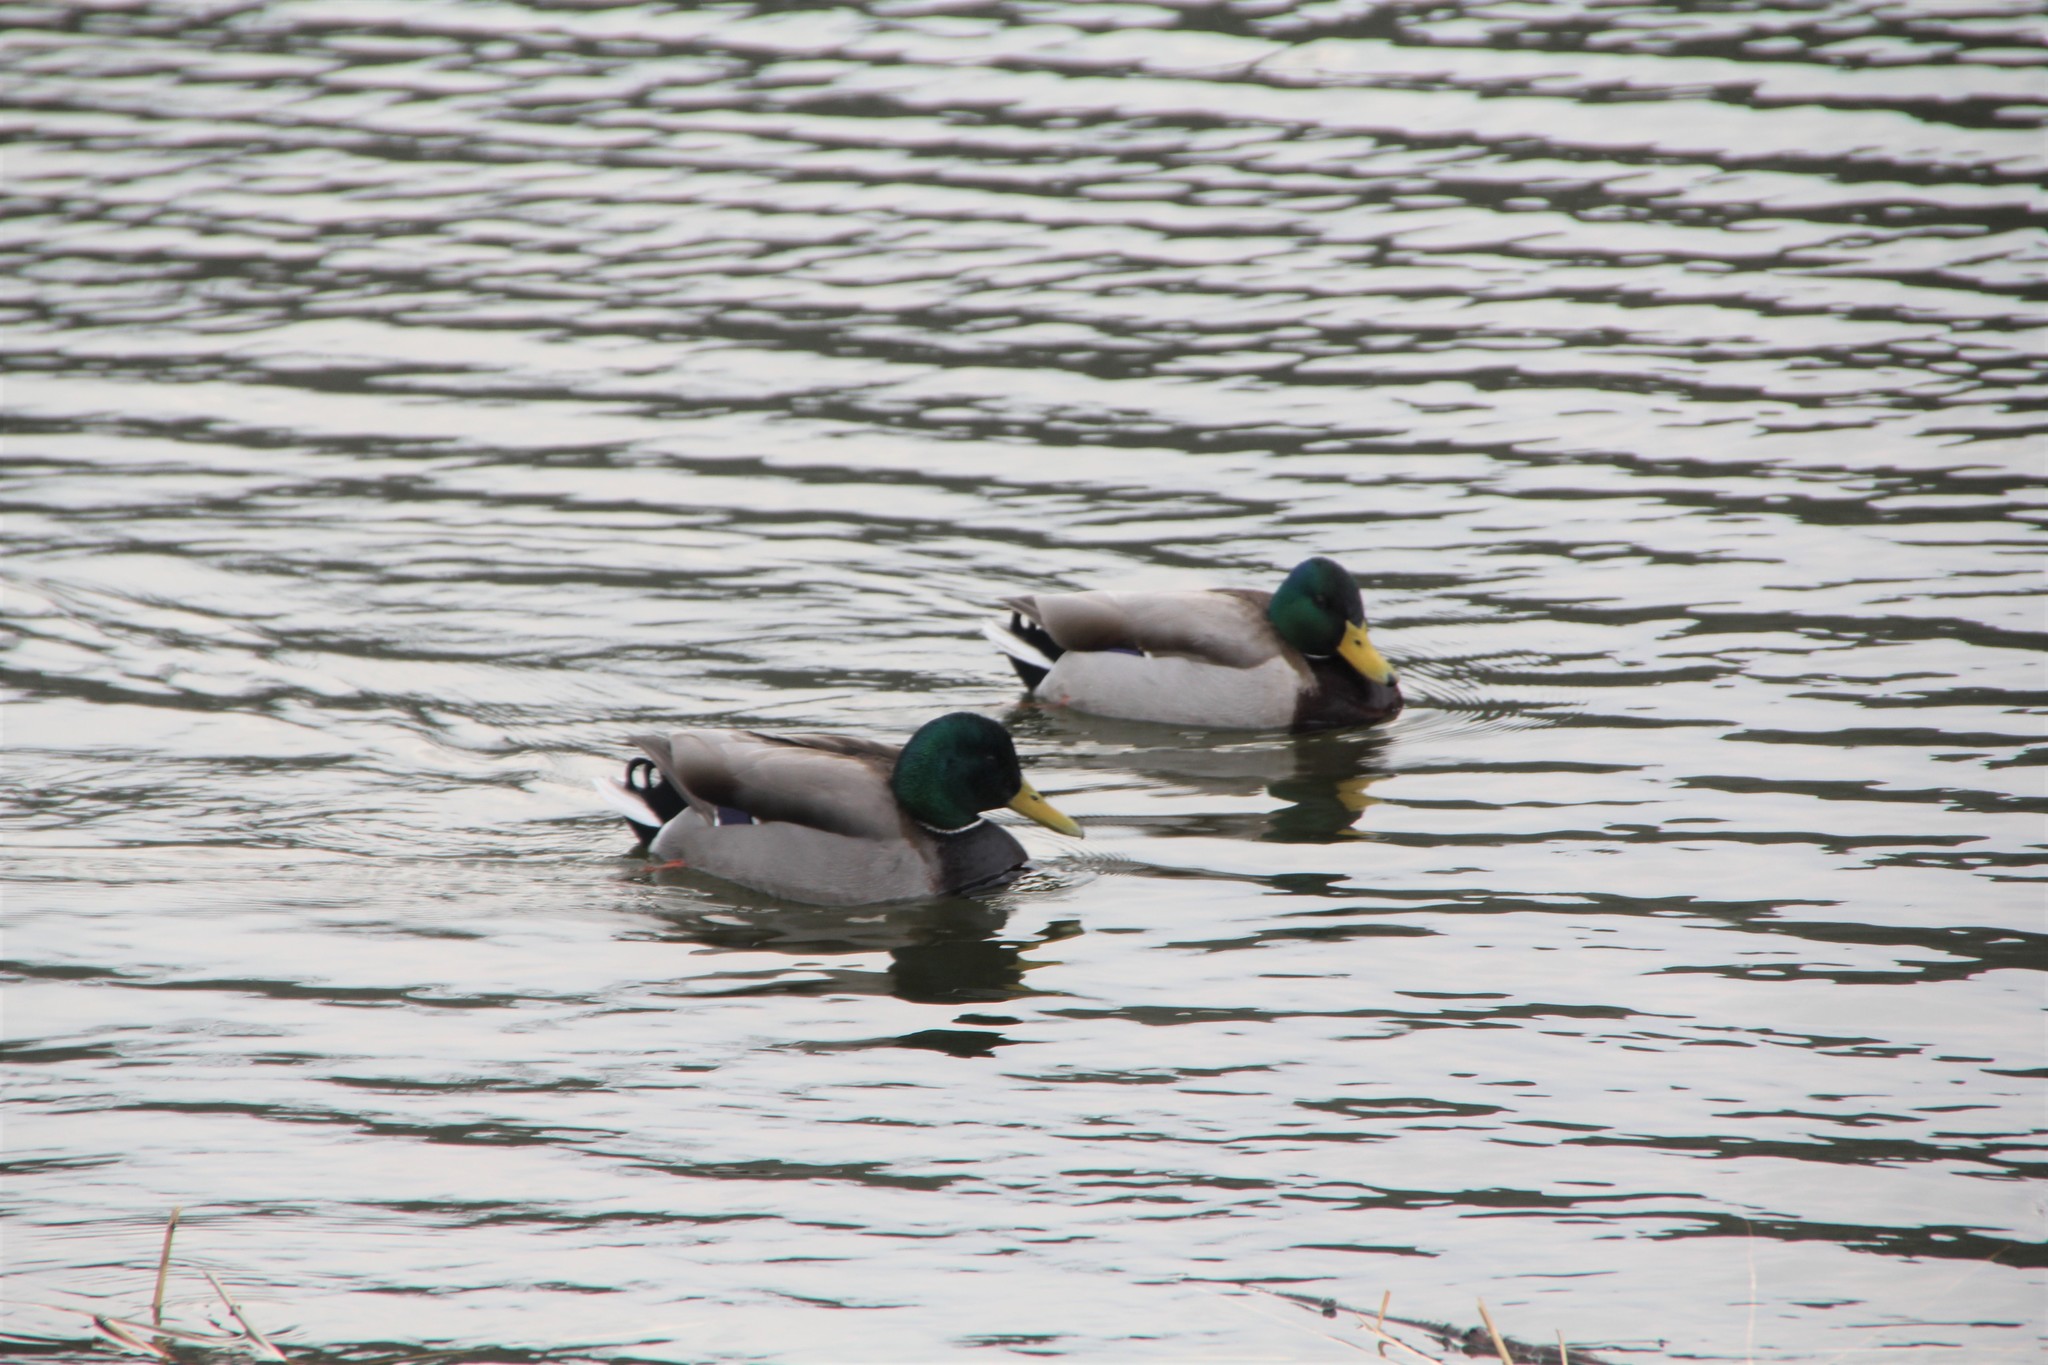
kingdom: Animalia
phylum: Chordata
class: Aves
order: Anseriformes
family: Anatidae
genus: Anas
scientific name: Anas platyrhynchos
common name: Mallard
